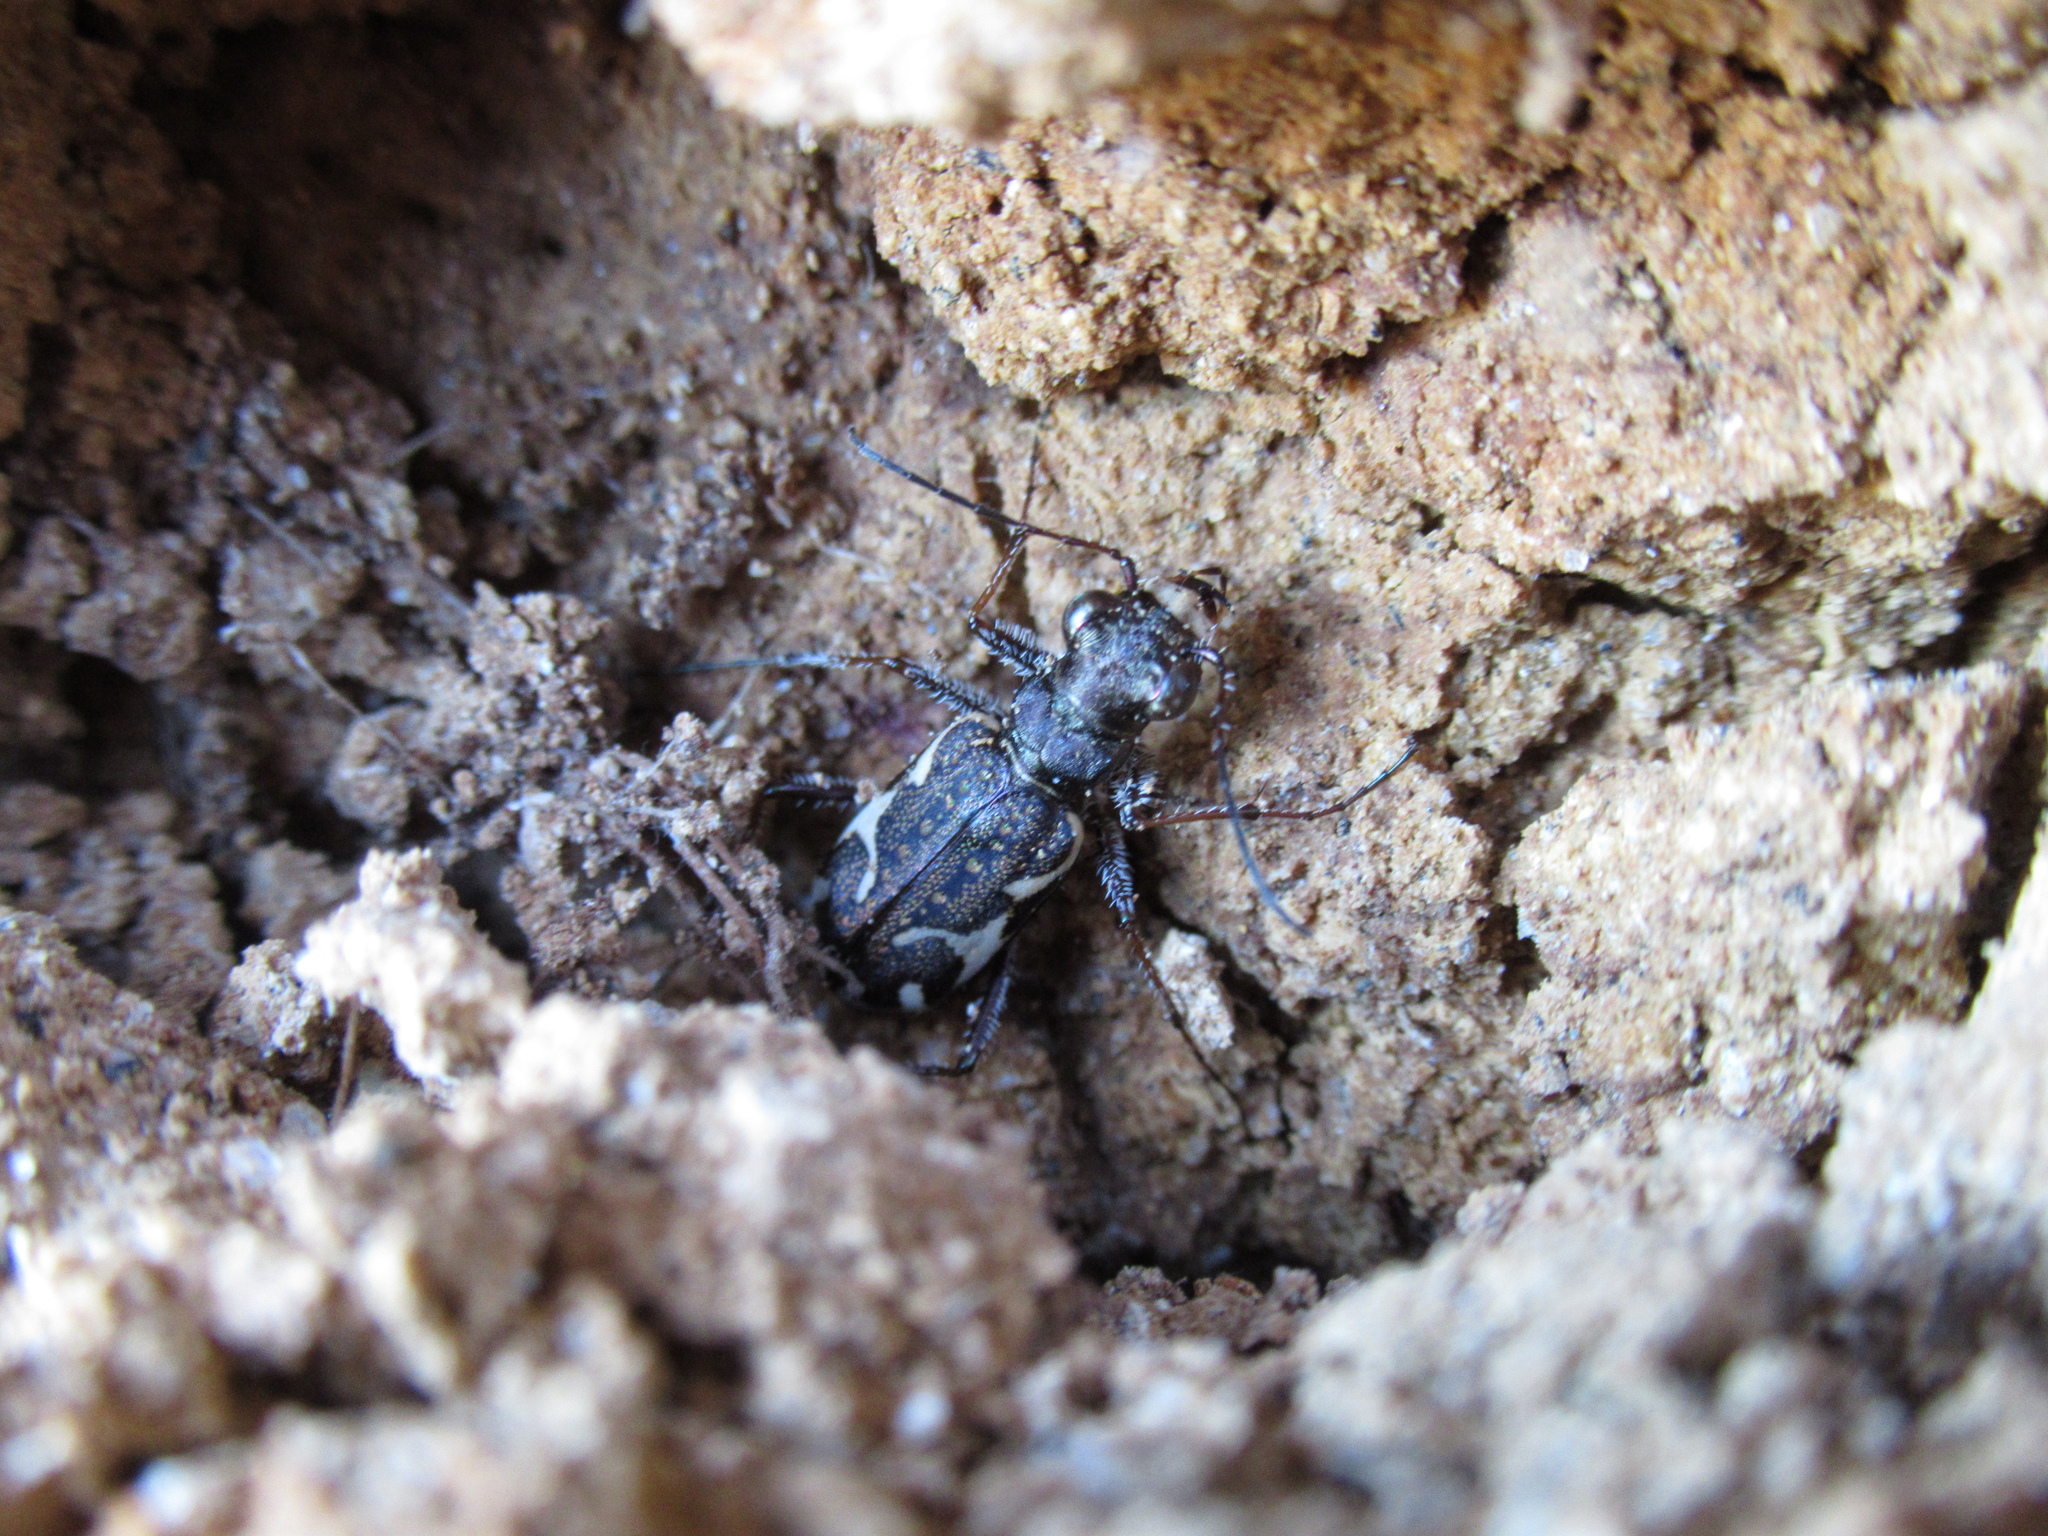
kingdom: Animalia
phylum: Arthropoda
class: Insecta
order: Coleoptera
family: Carabidae
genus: Neocicindela
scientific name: Neocicindela tuberculata
